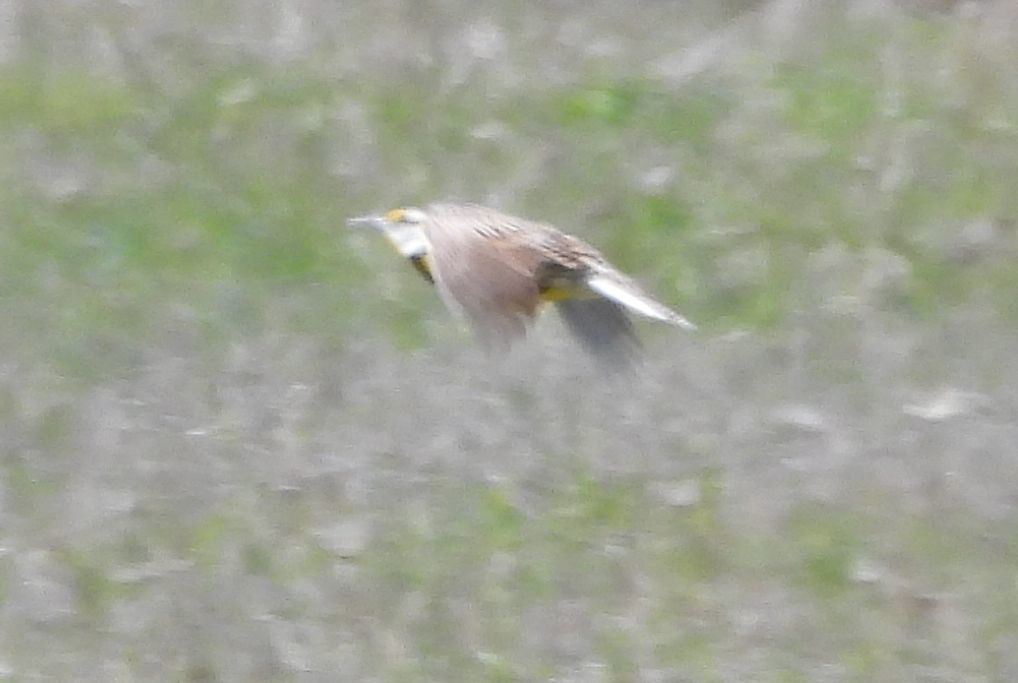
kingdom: Animalia
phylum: Chordata
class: Aves
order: Passeriformes
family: Icteridae
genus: Sturnella
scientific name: Sturnella magna
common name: Eastern meadowlark
